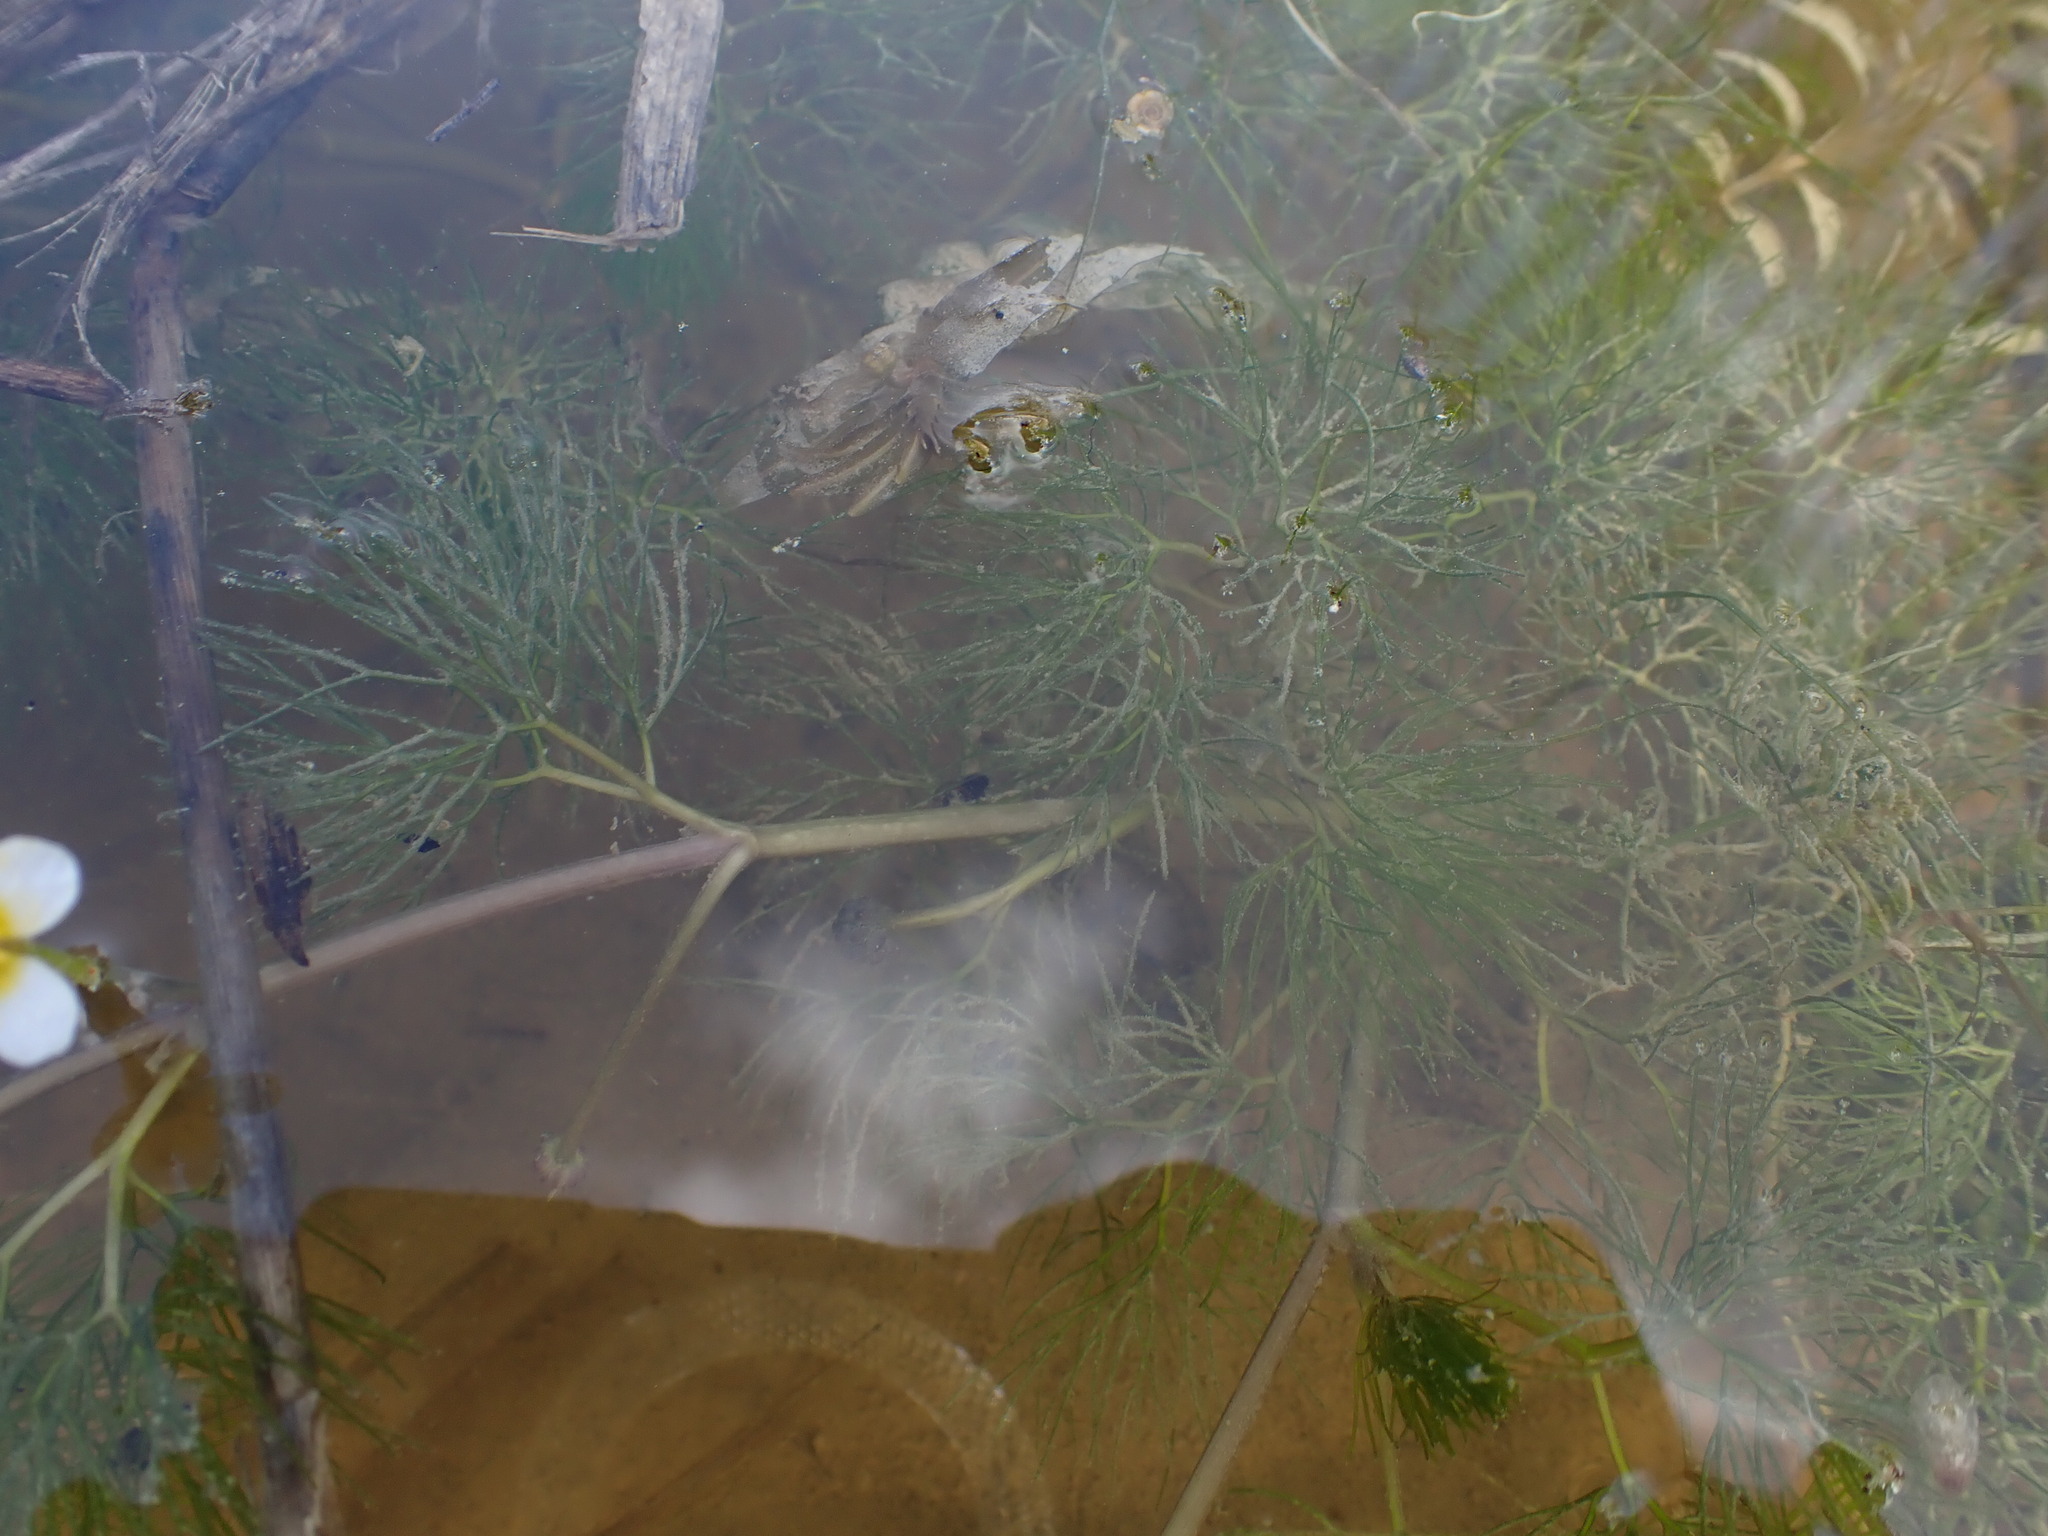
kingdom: Plantae
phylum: Tracheophyta
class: Magnoliopsida
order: Ranunculales
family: Ranunculaceae
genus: Ranunculus
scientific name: Ranunculus trichophyllus
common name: Thread-leaved water-crowfoot
